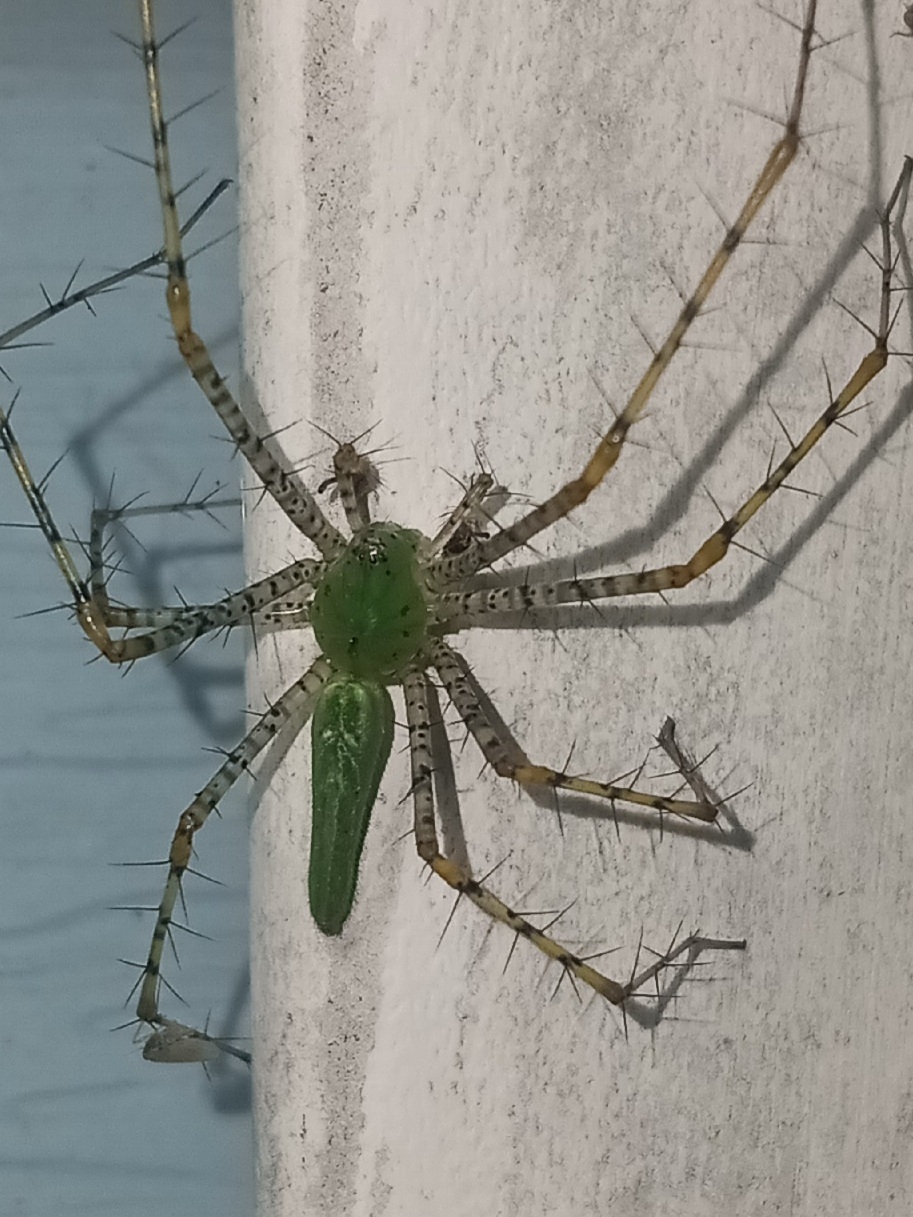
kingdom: Animalia
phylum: Arthropoda
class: Arachnida
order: Araneae
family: Oxyopidae
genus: Peucetia
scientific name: Peucetia viridans
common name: Lynx spiders
